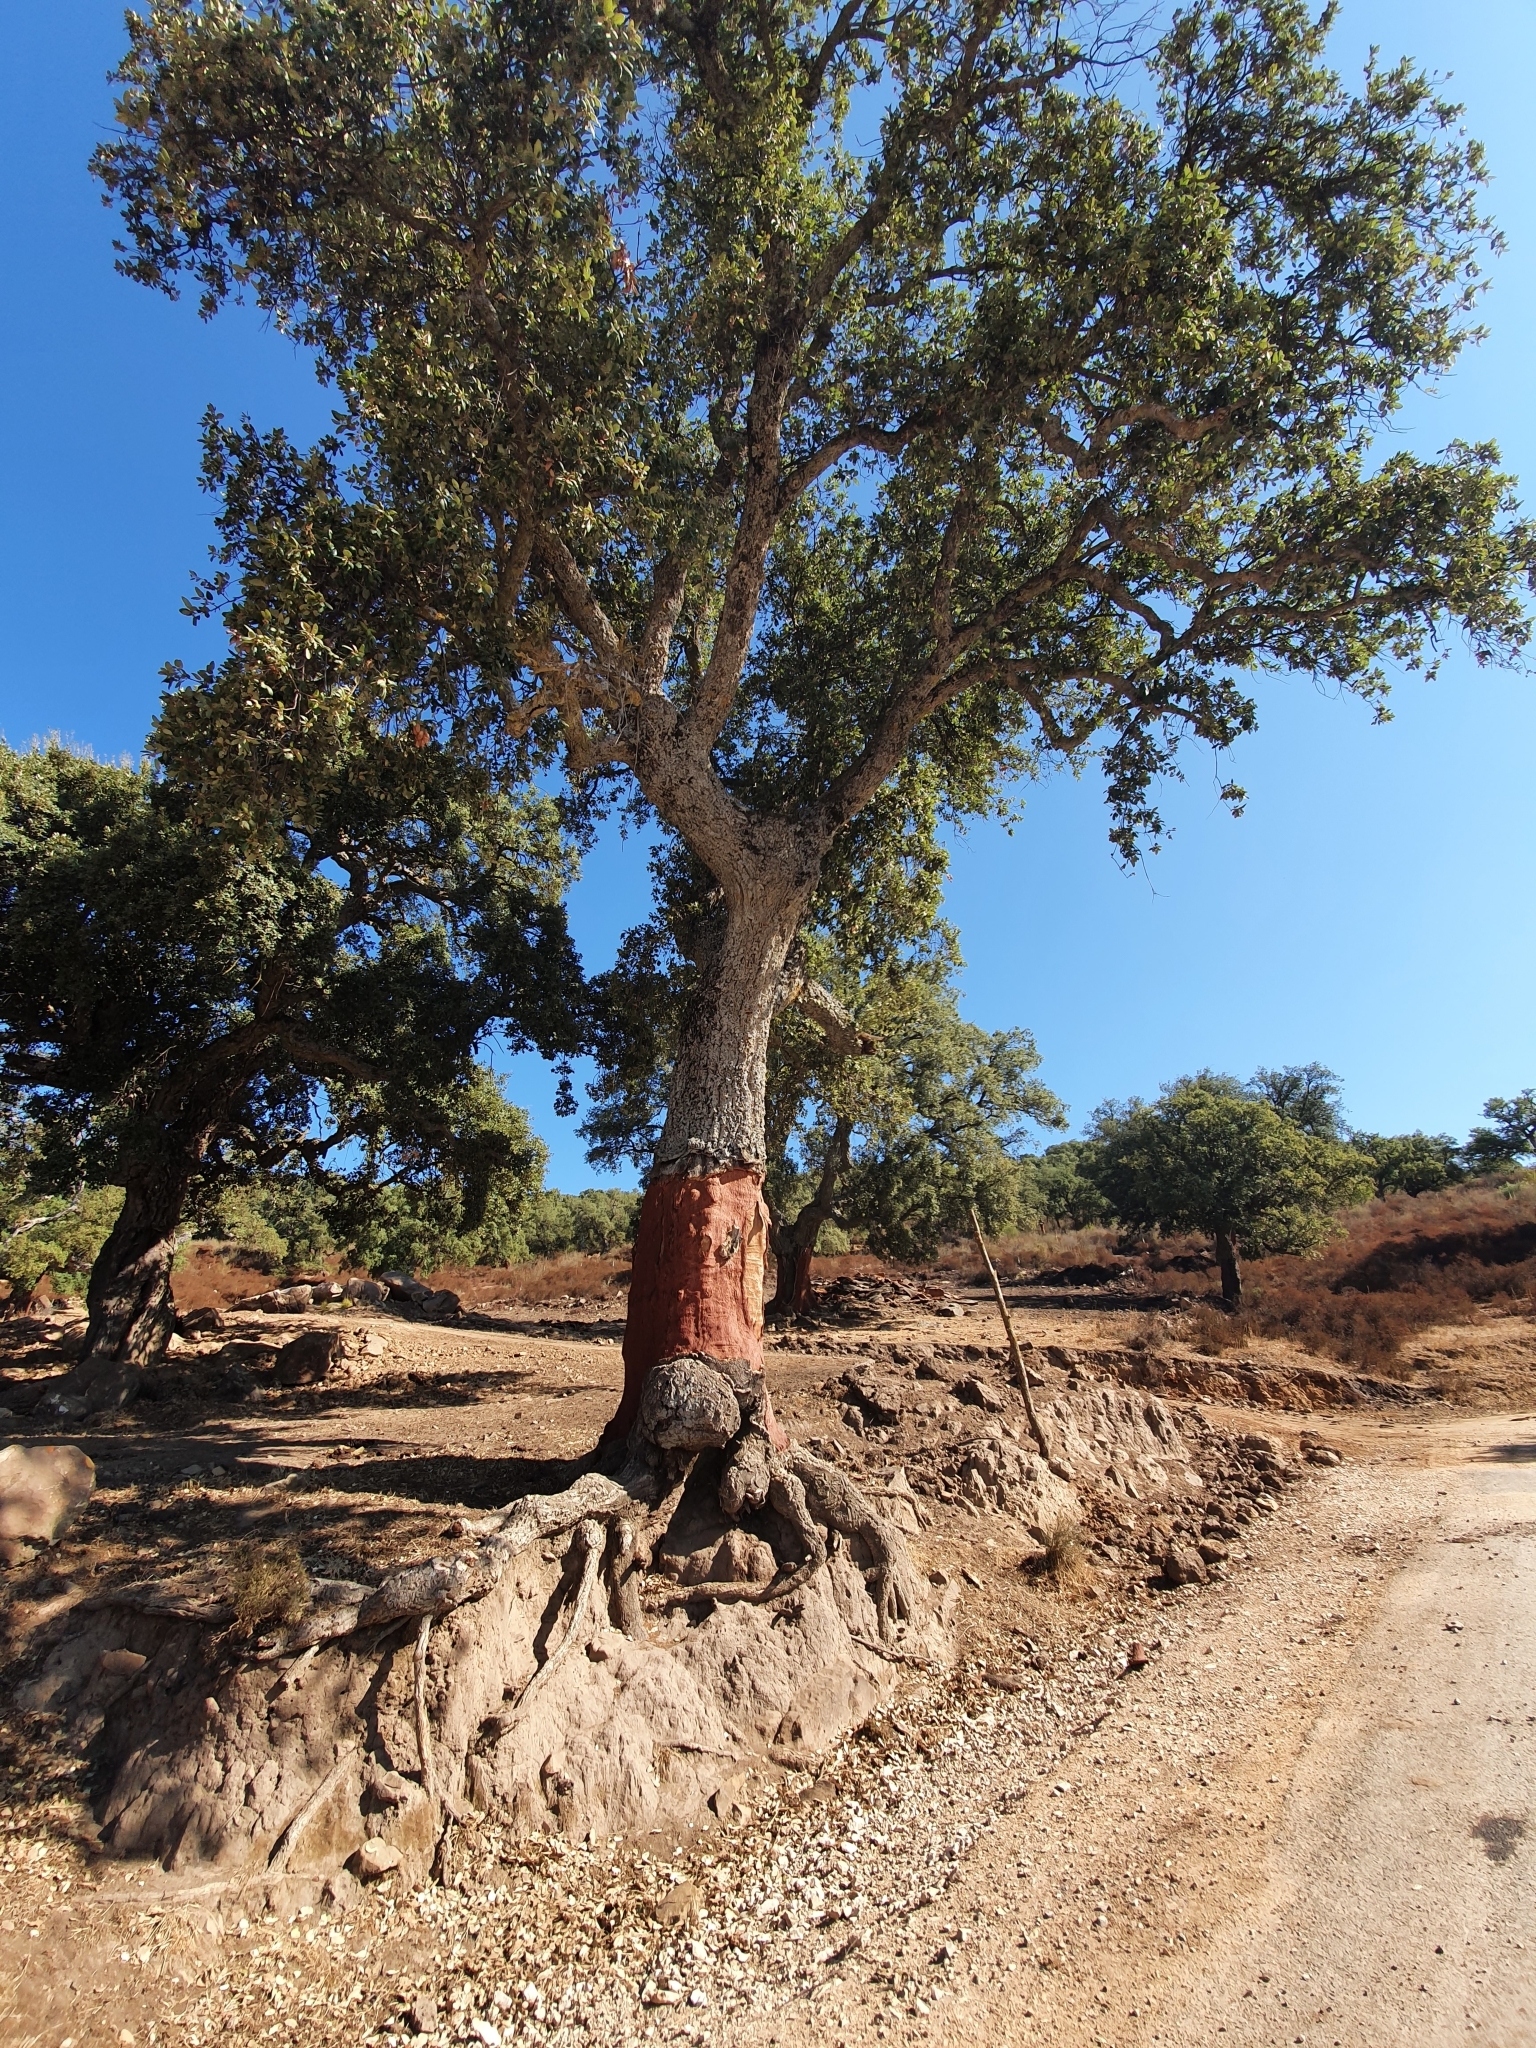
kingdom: Plantae
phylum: Tracheophyta
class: Magnoliopsida
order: Fagales
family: Fagaceae
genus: Quercus
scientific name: Quercus suber
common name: Cork oak
